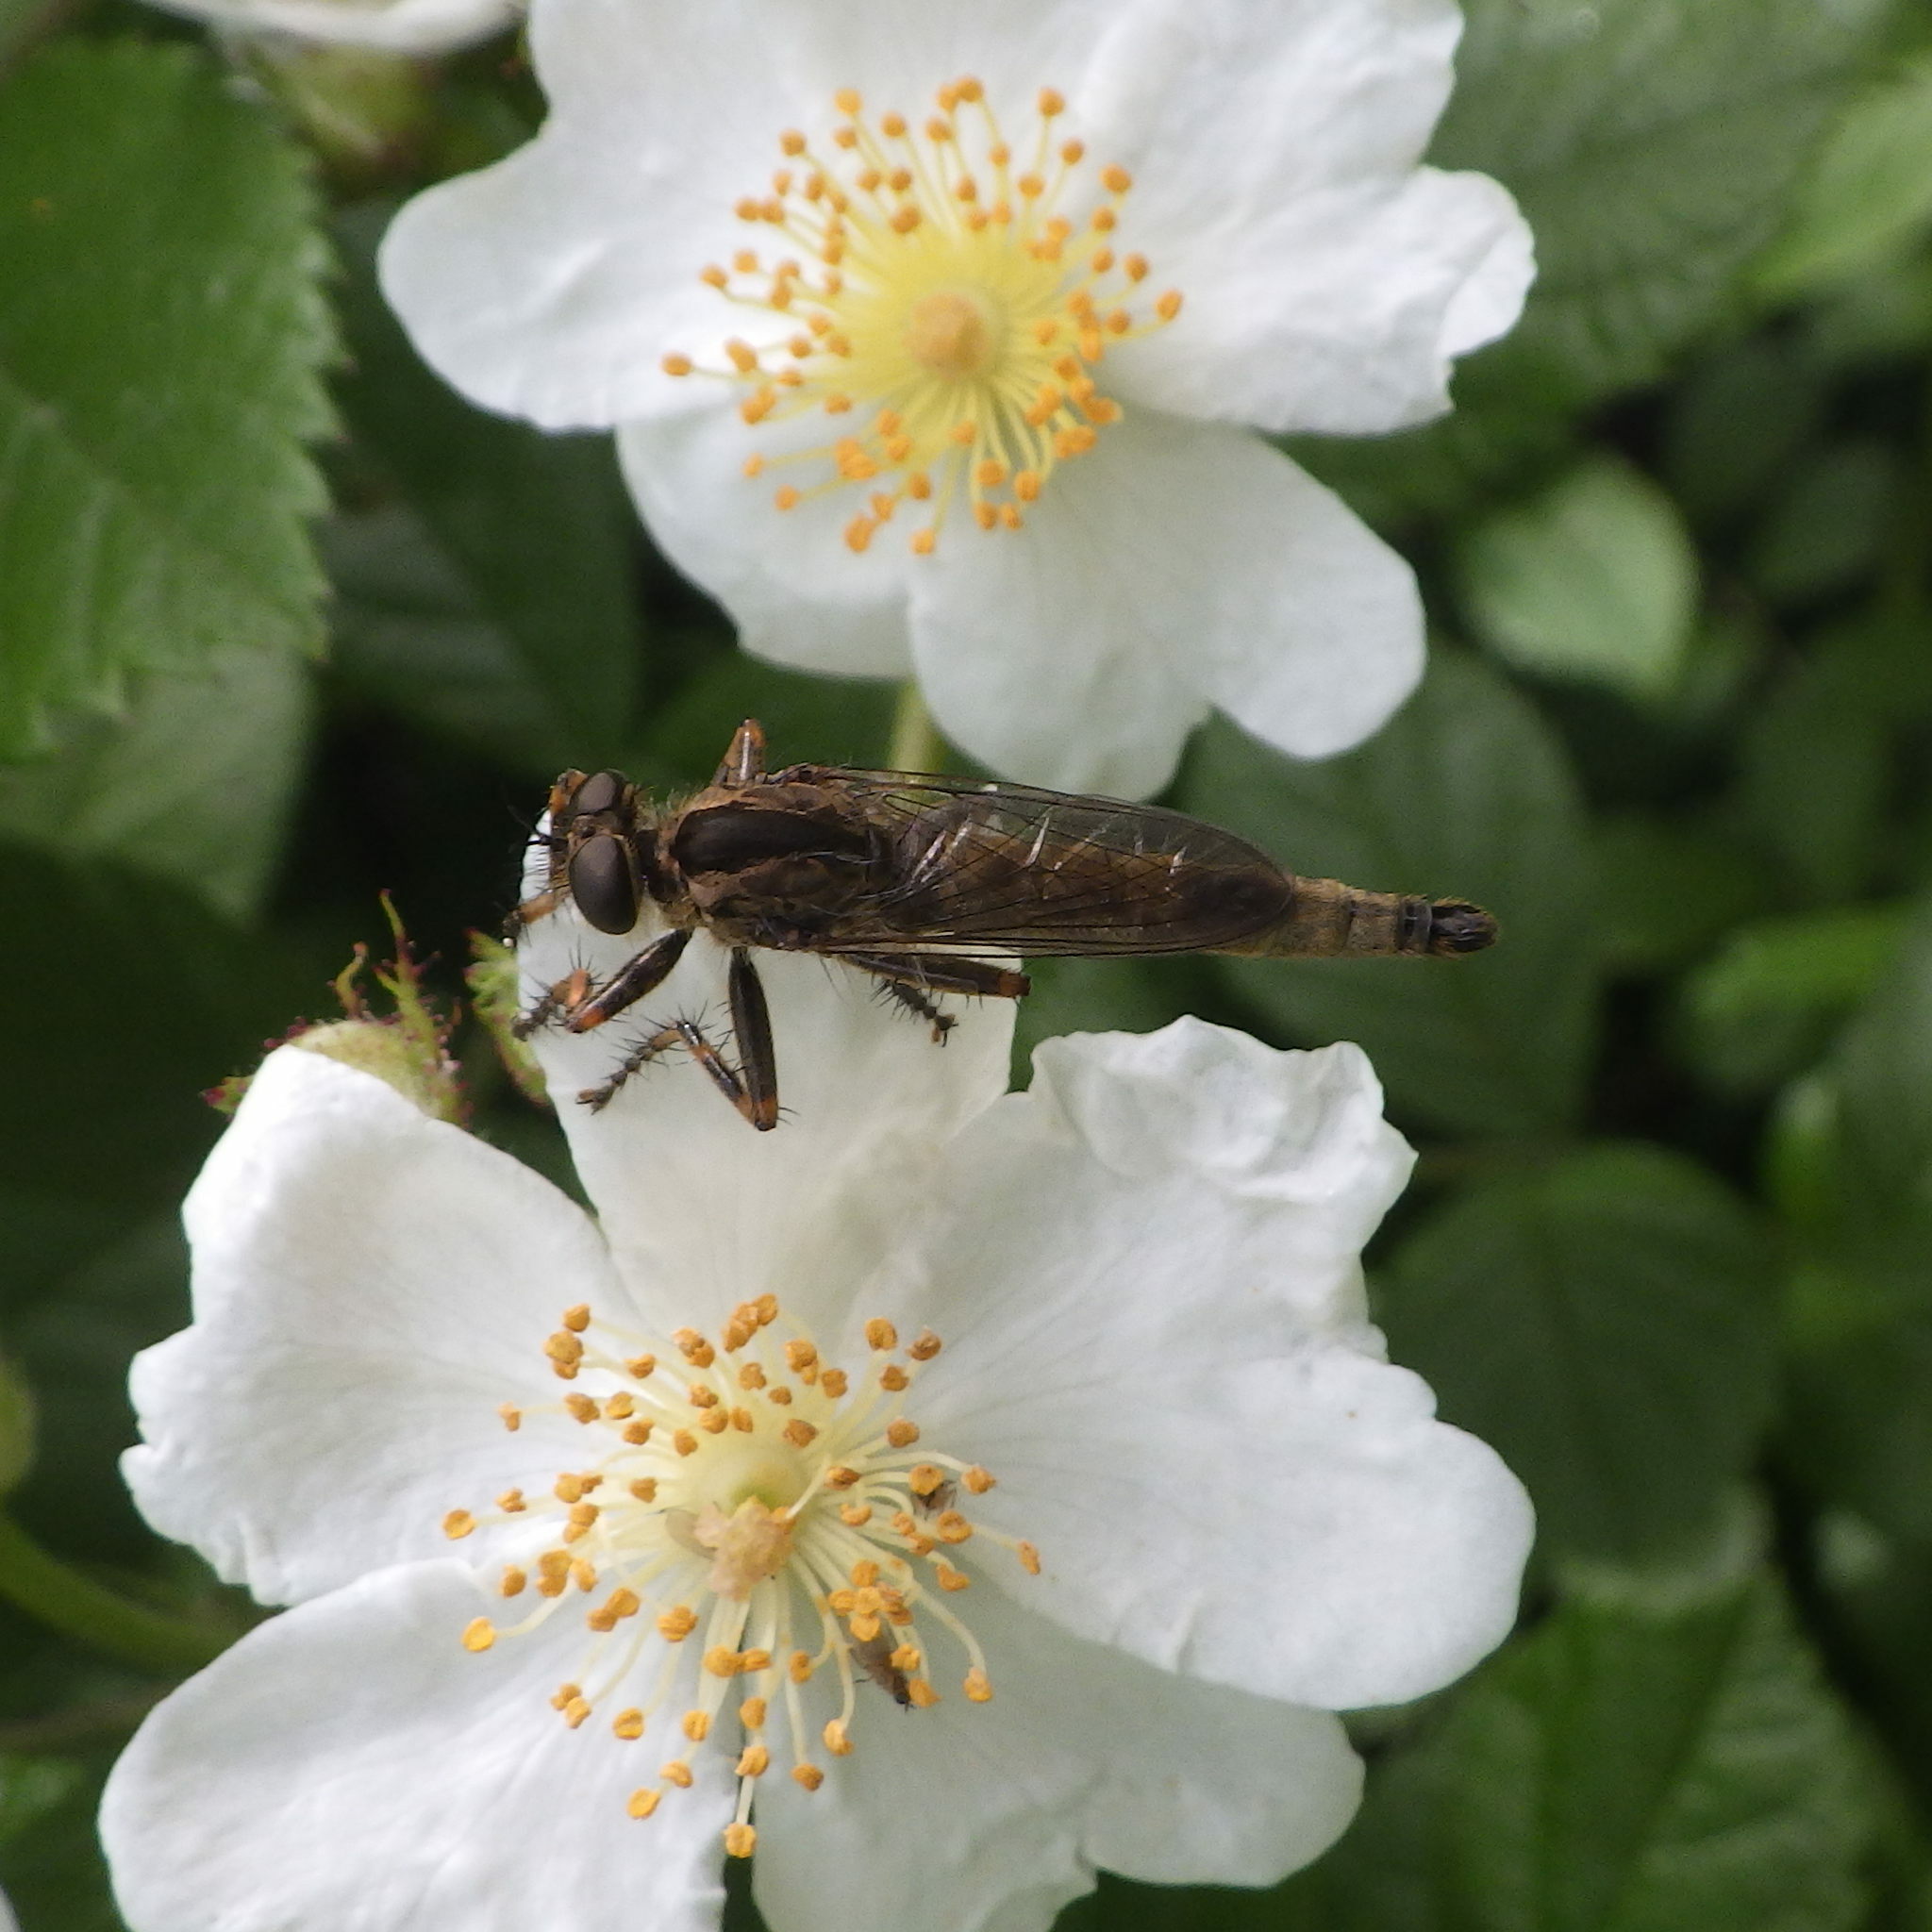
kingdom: Animalia
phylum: Arthropoda
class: Insecta
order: Diptera
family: Asilidae
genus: Machimus
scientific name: Machimus snowii
